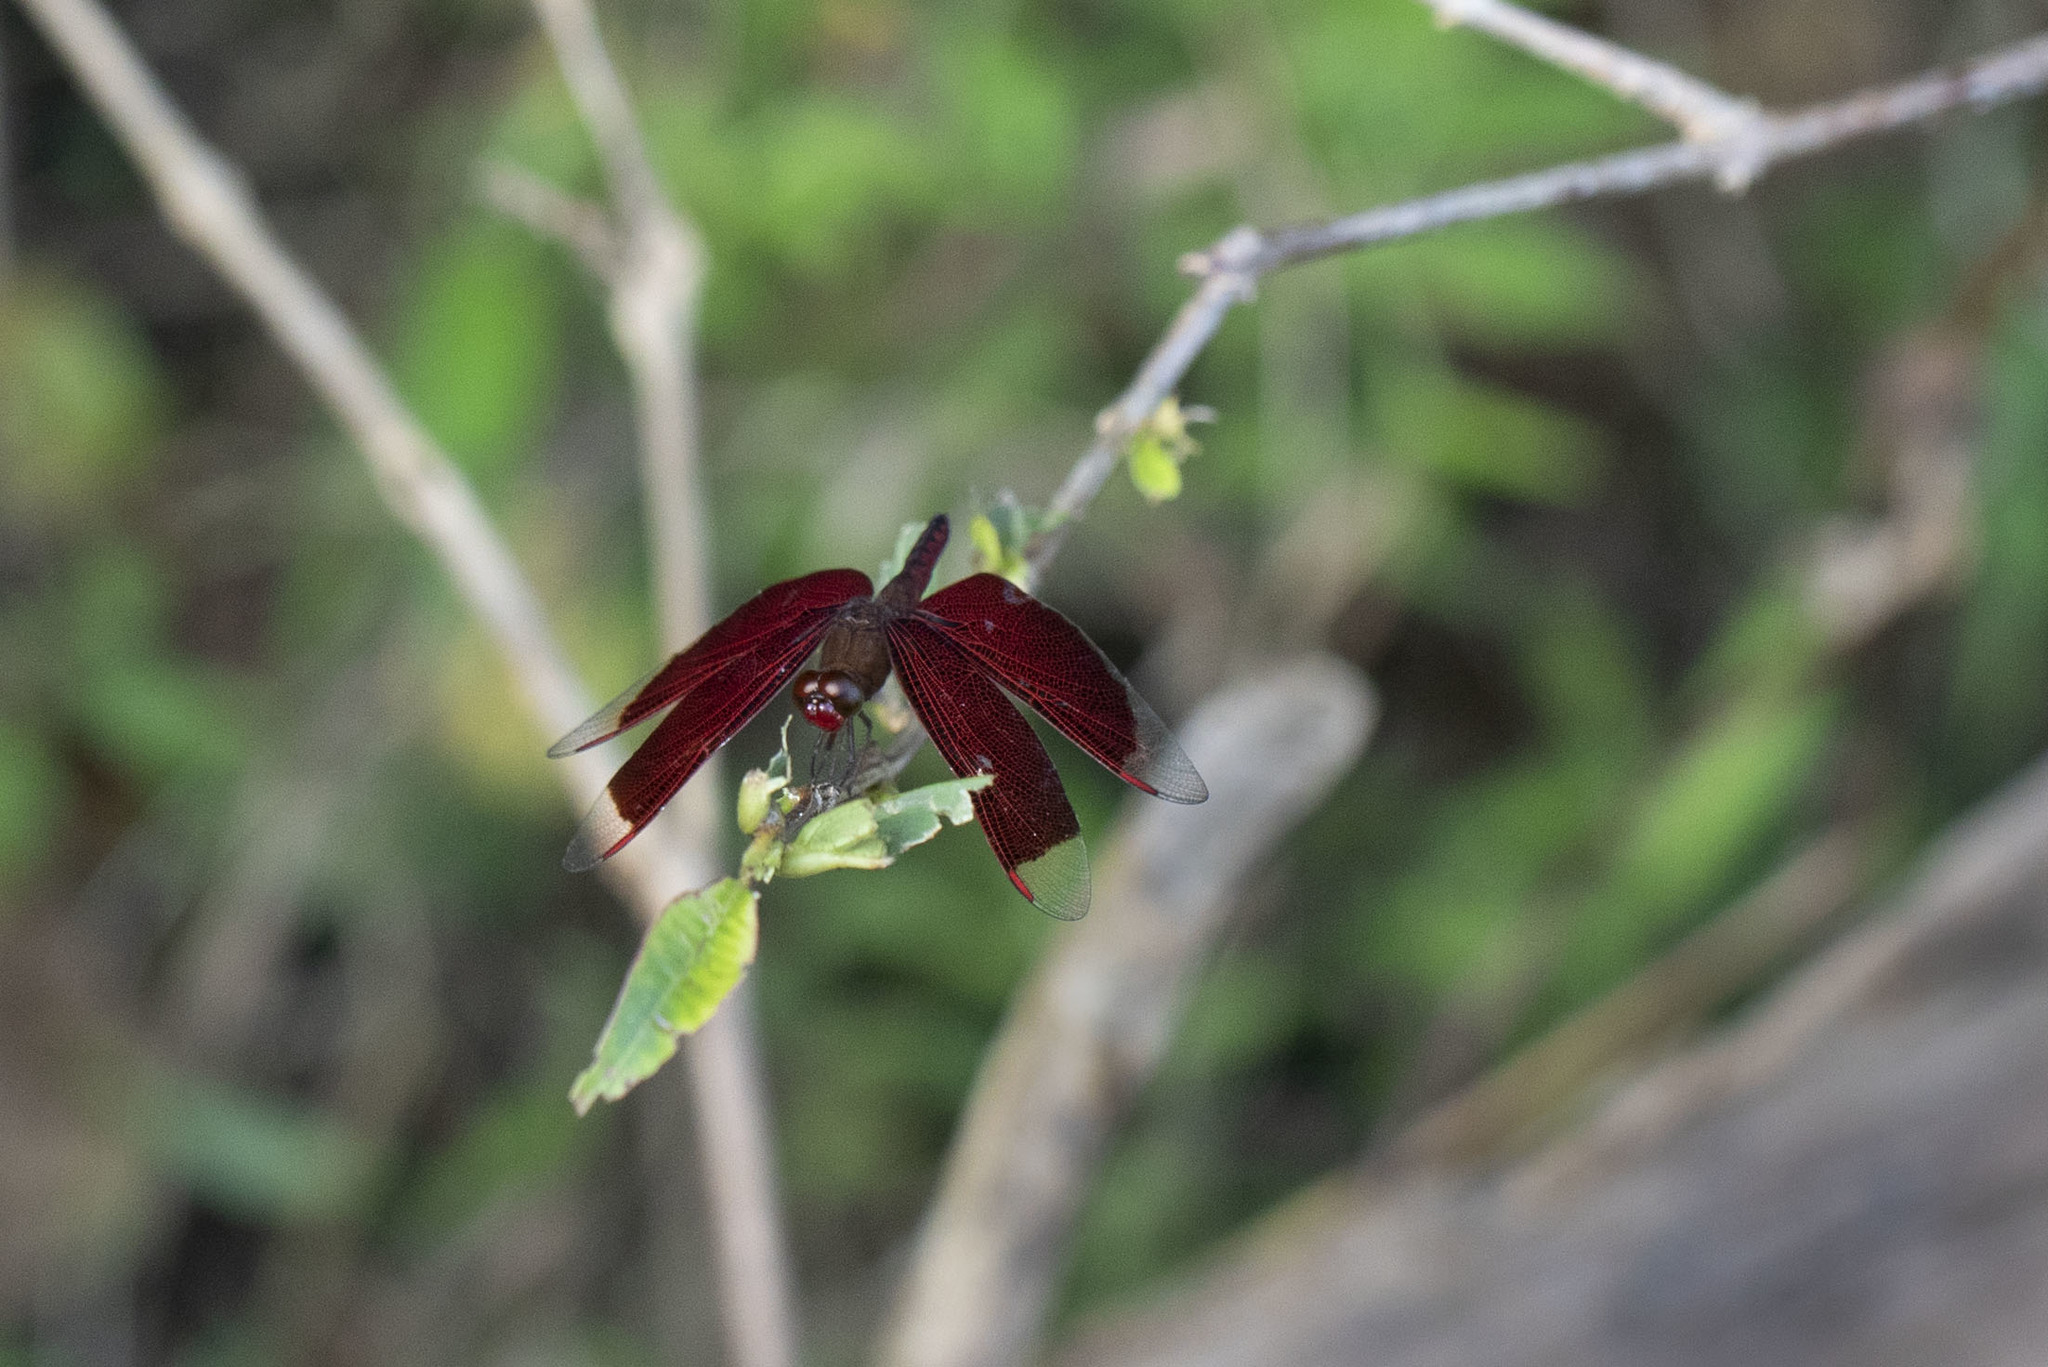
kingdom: Animalia
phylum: Arthropoda
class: Insecta
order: Odonata
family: Libellulidae
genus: Neurothemis
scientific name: Neurothemis ramburii
